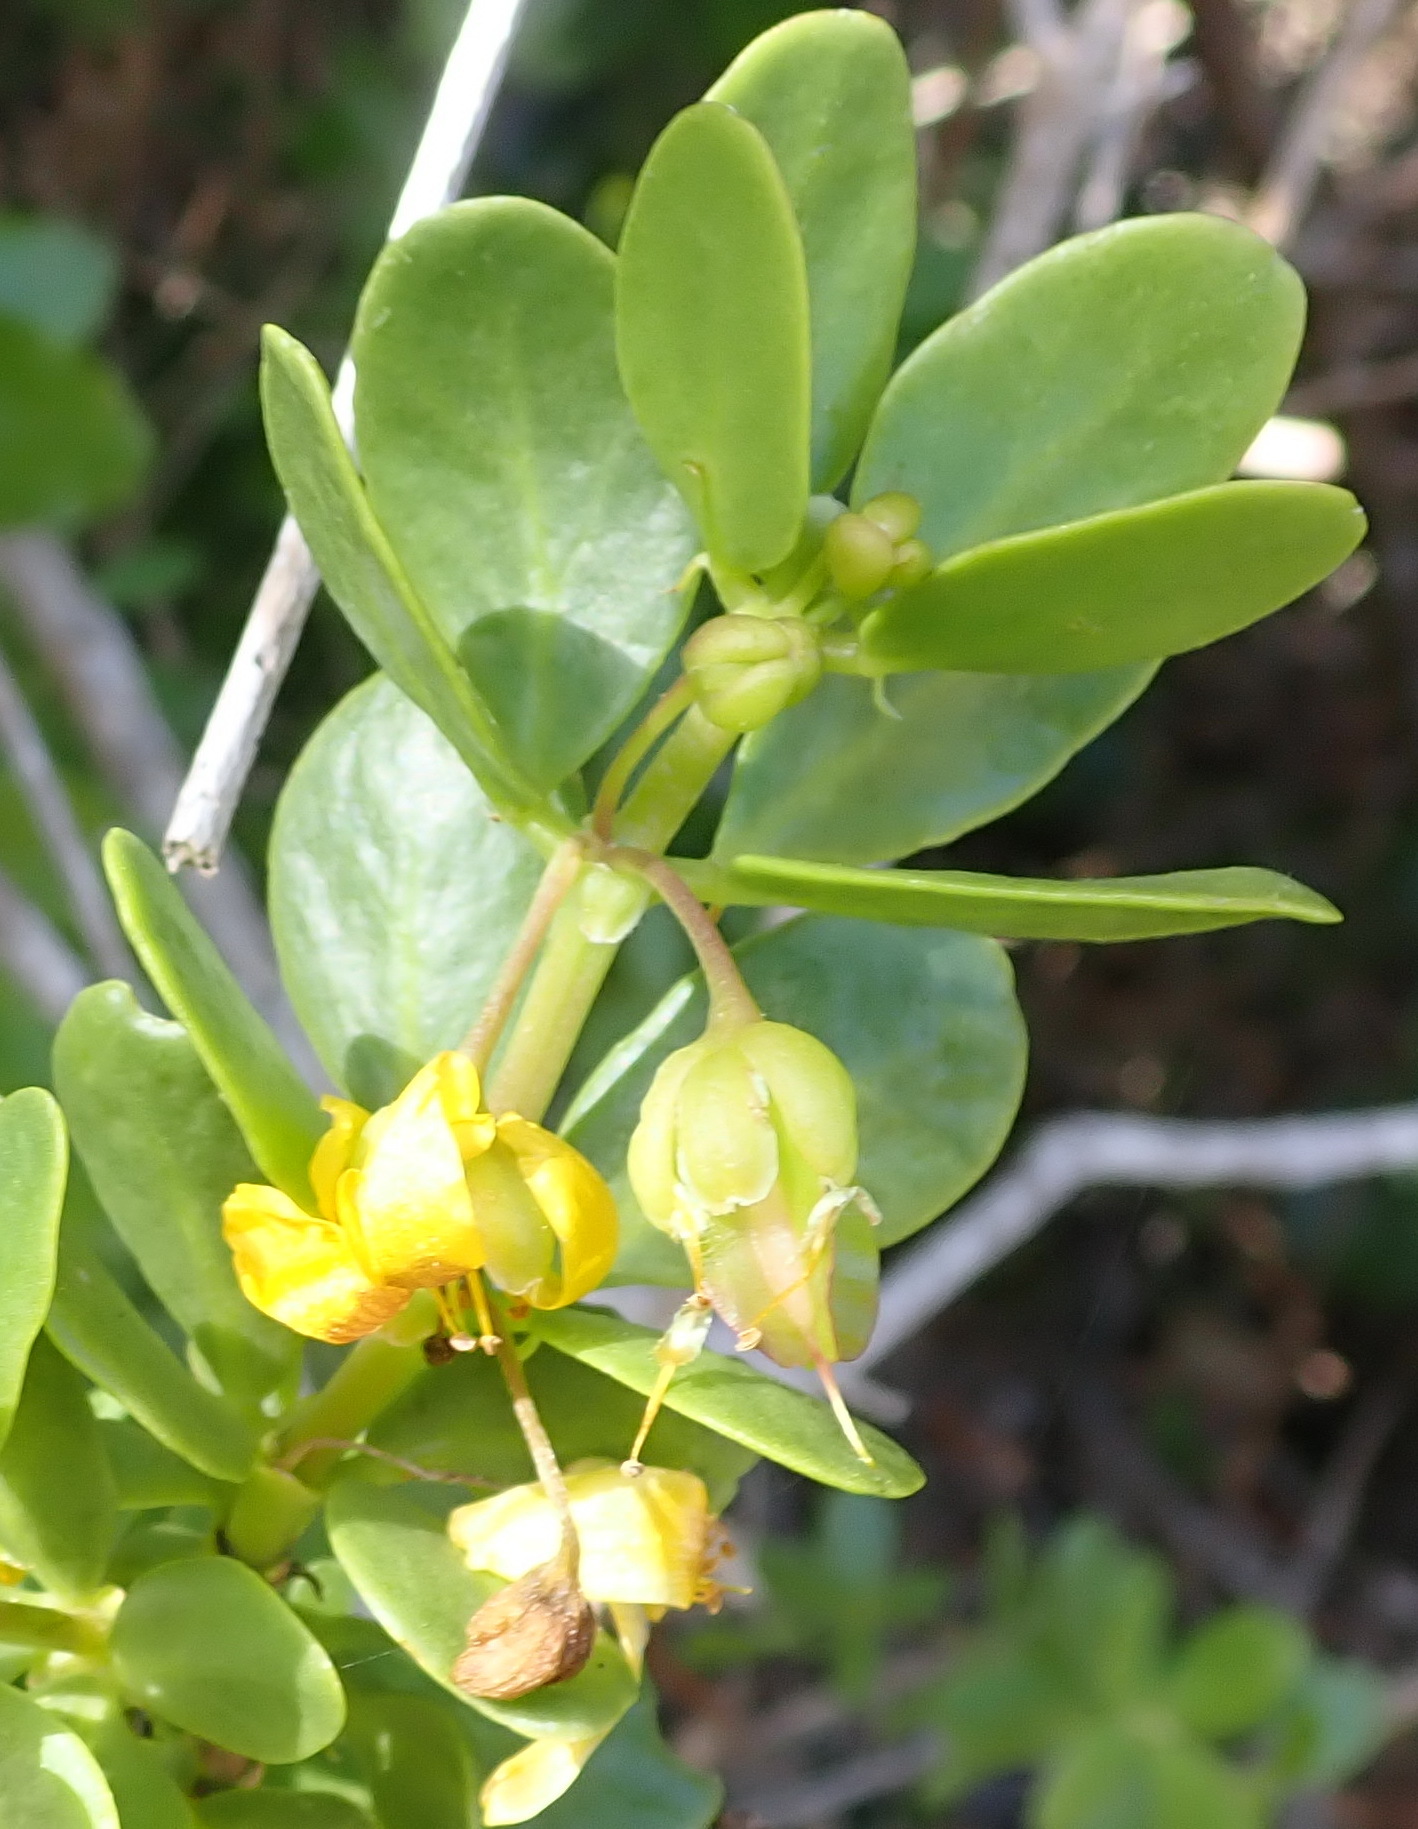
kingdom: Plantae
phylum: Tracheophyta
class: Magnoliopsida
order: Zygophyllales
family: Zygophyllaceae
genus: Roepera
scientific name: Roepera morgsana
